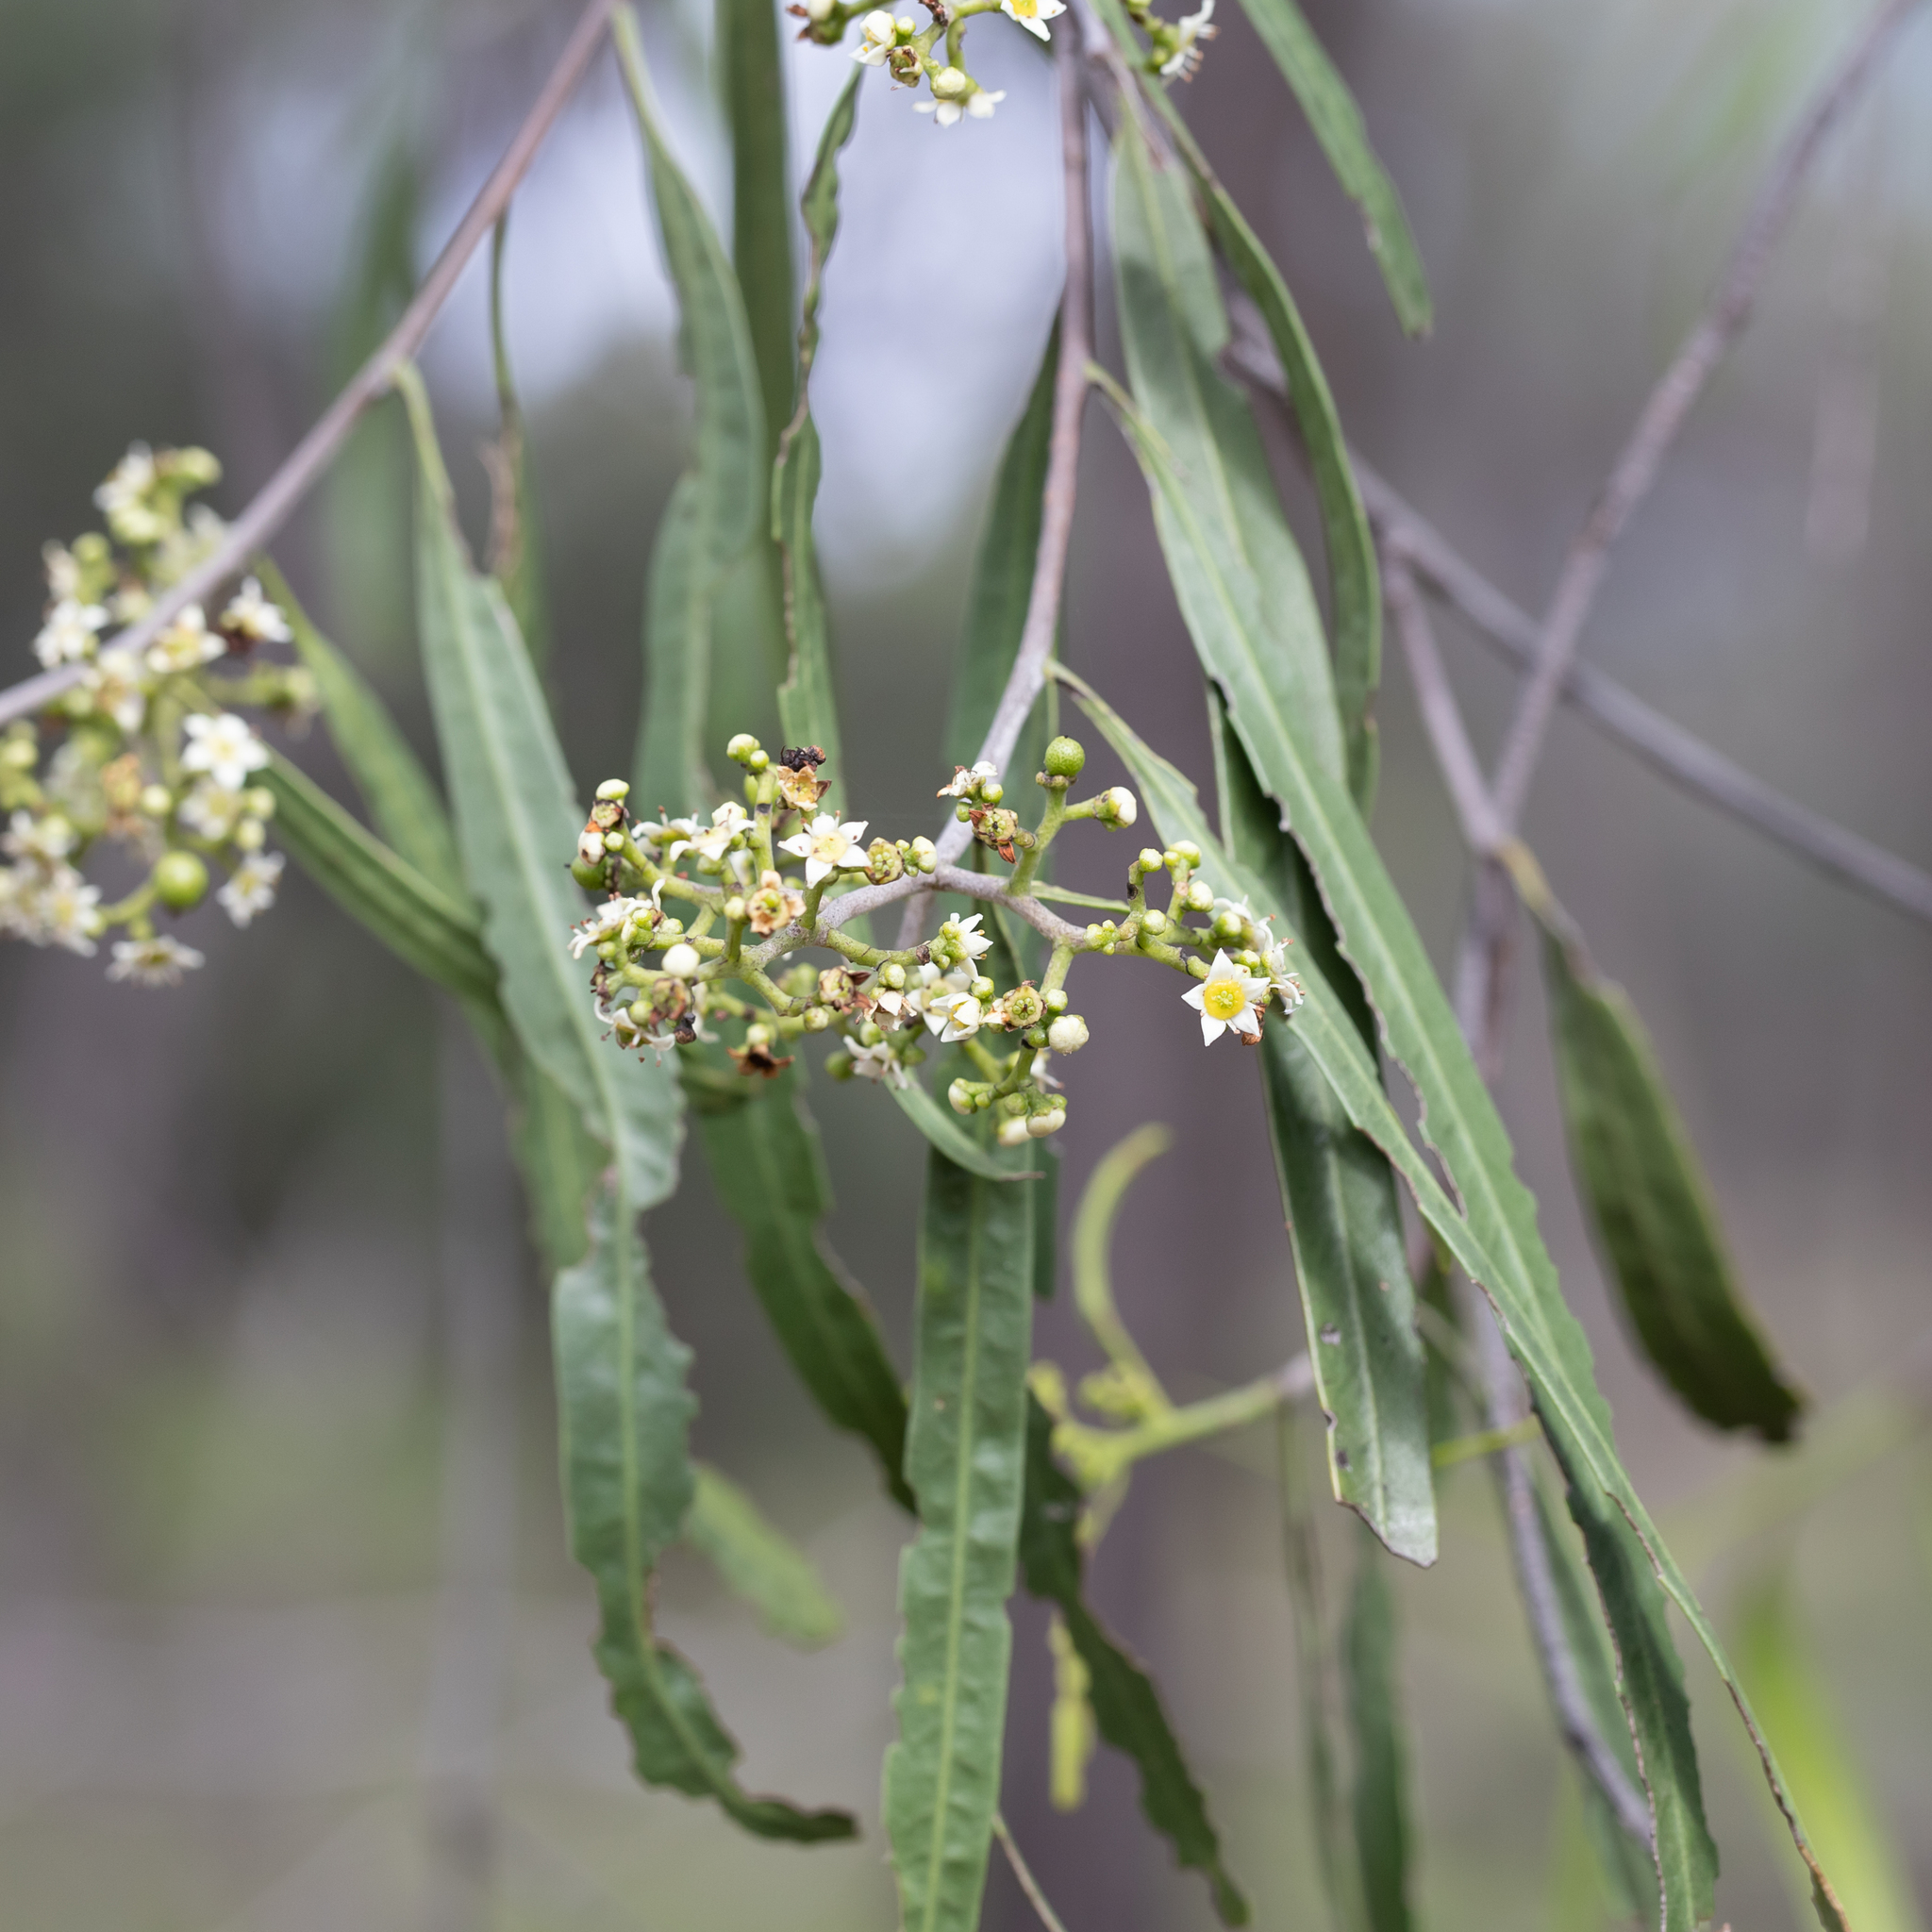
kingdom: Plantae
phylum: Tracheophyta
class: Magnoliopsida
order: Sapindales
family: Rutaceae
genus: Geijera
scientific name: Geijera parviflora
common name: Wilga
